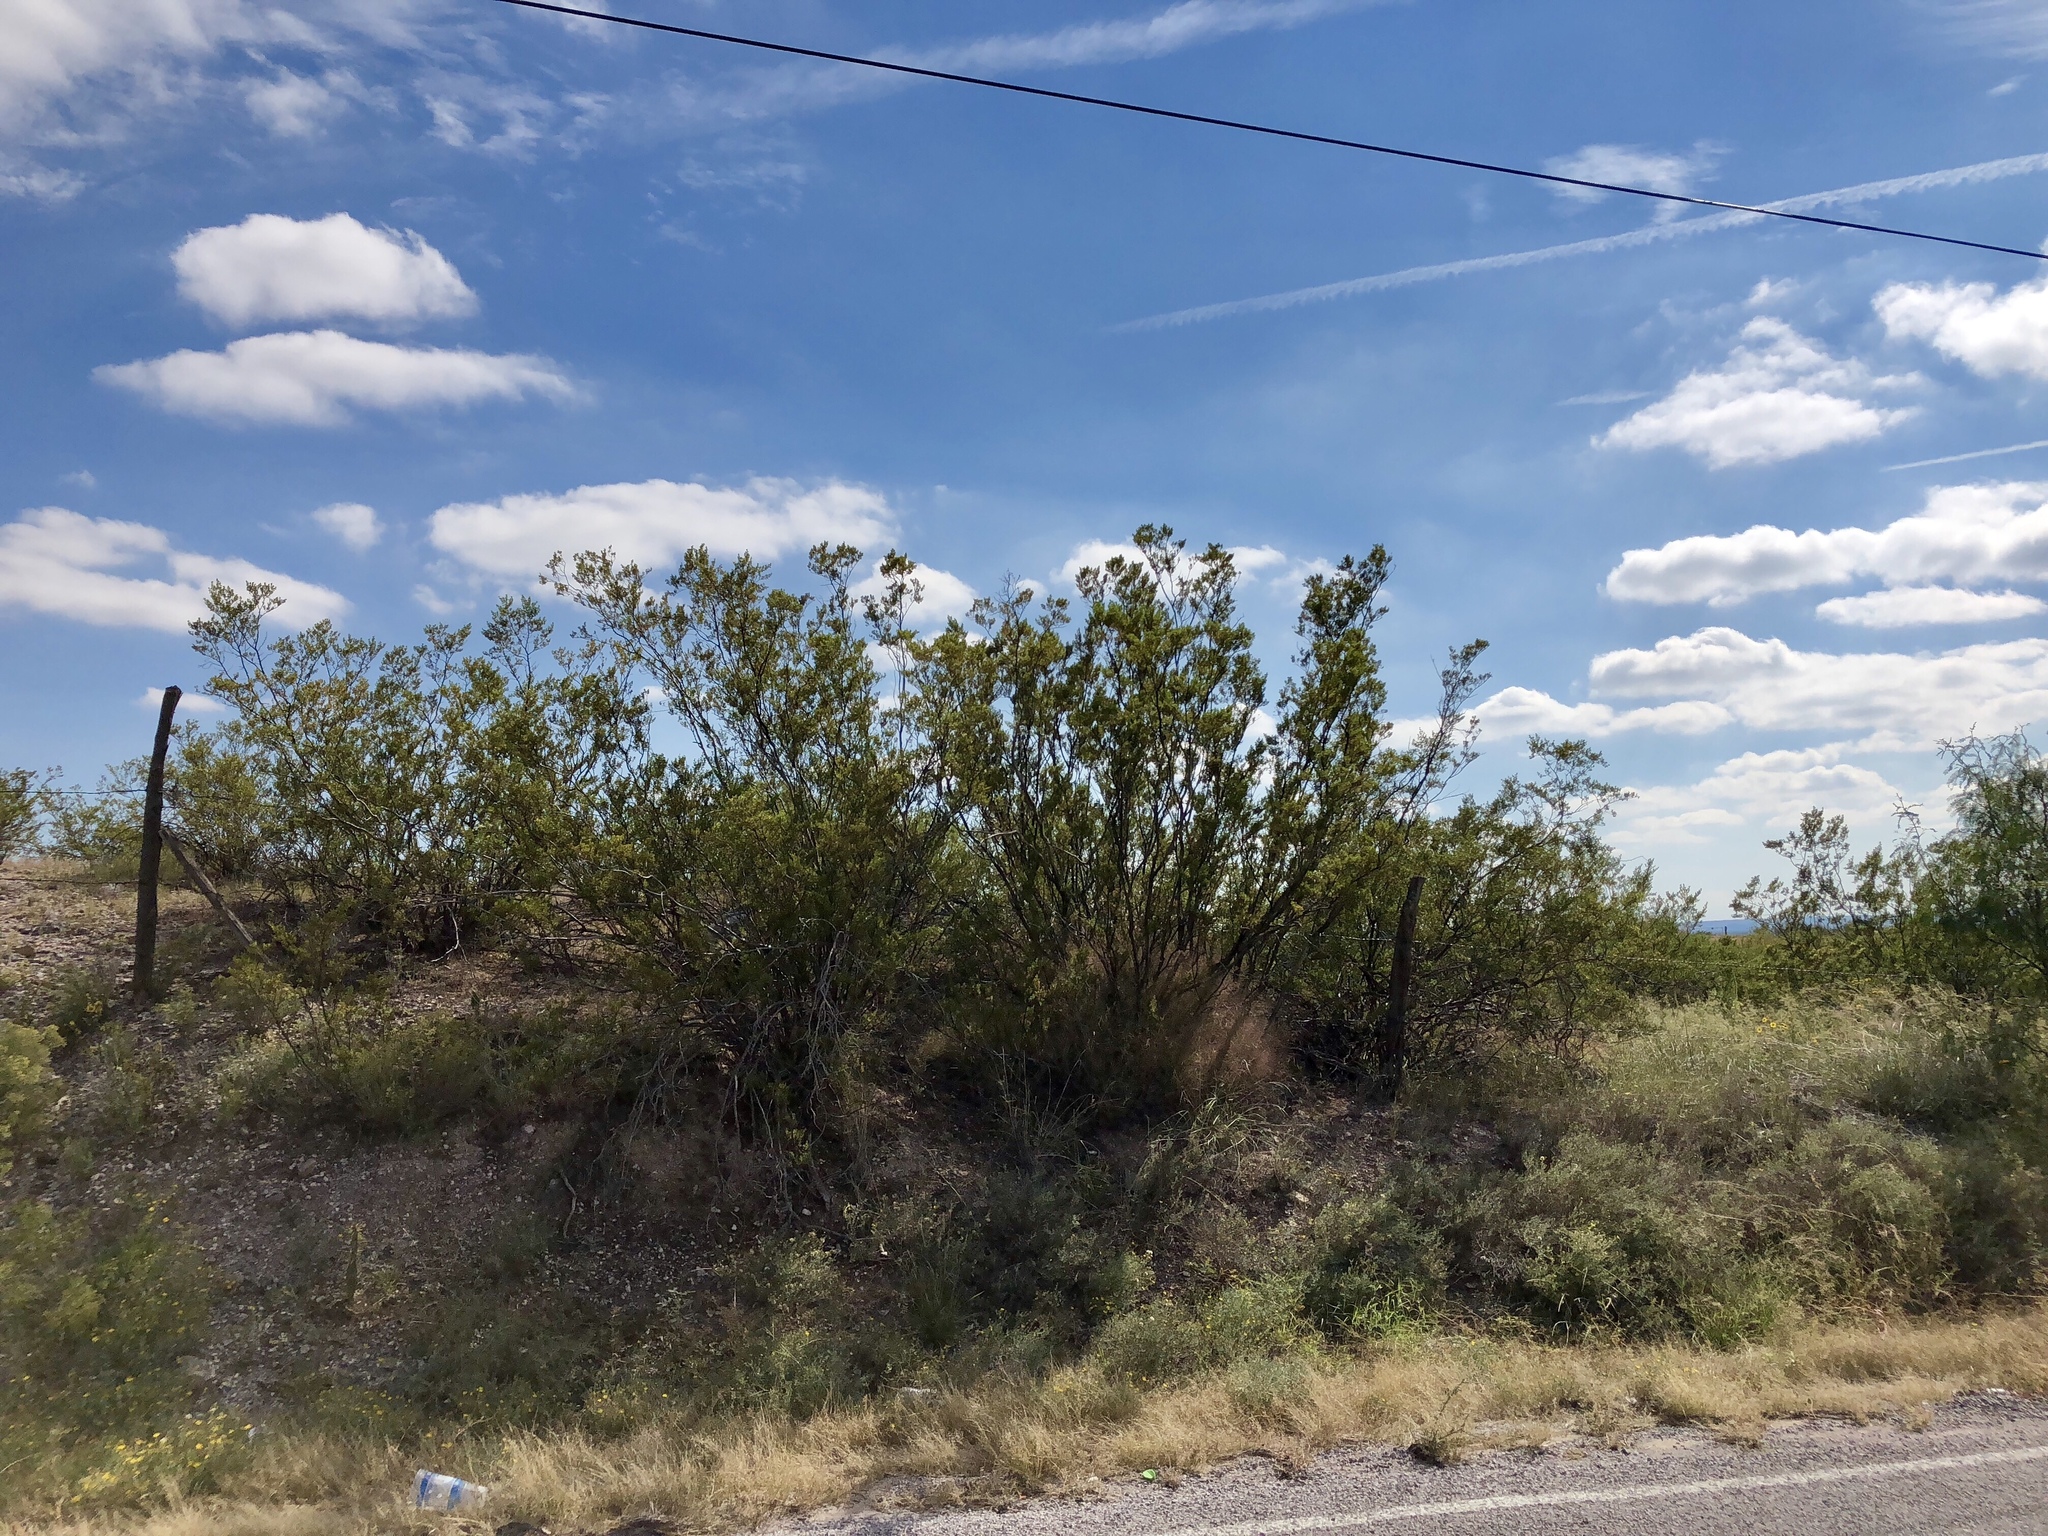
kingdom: Plantae
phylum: Tracheophyta
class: Magnoliopsida
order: Zygophyllales
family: Zygophyllaceae
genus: Larrea
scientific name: Larrea tridentata
